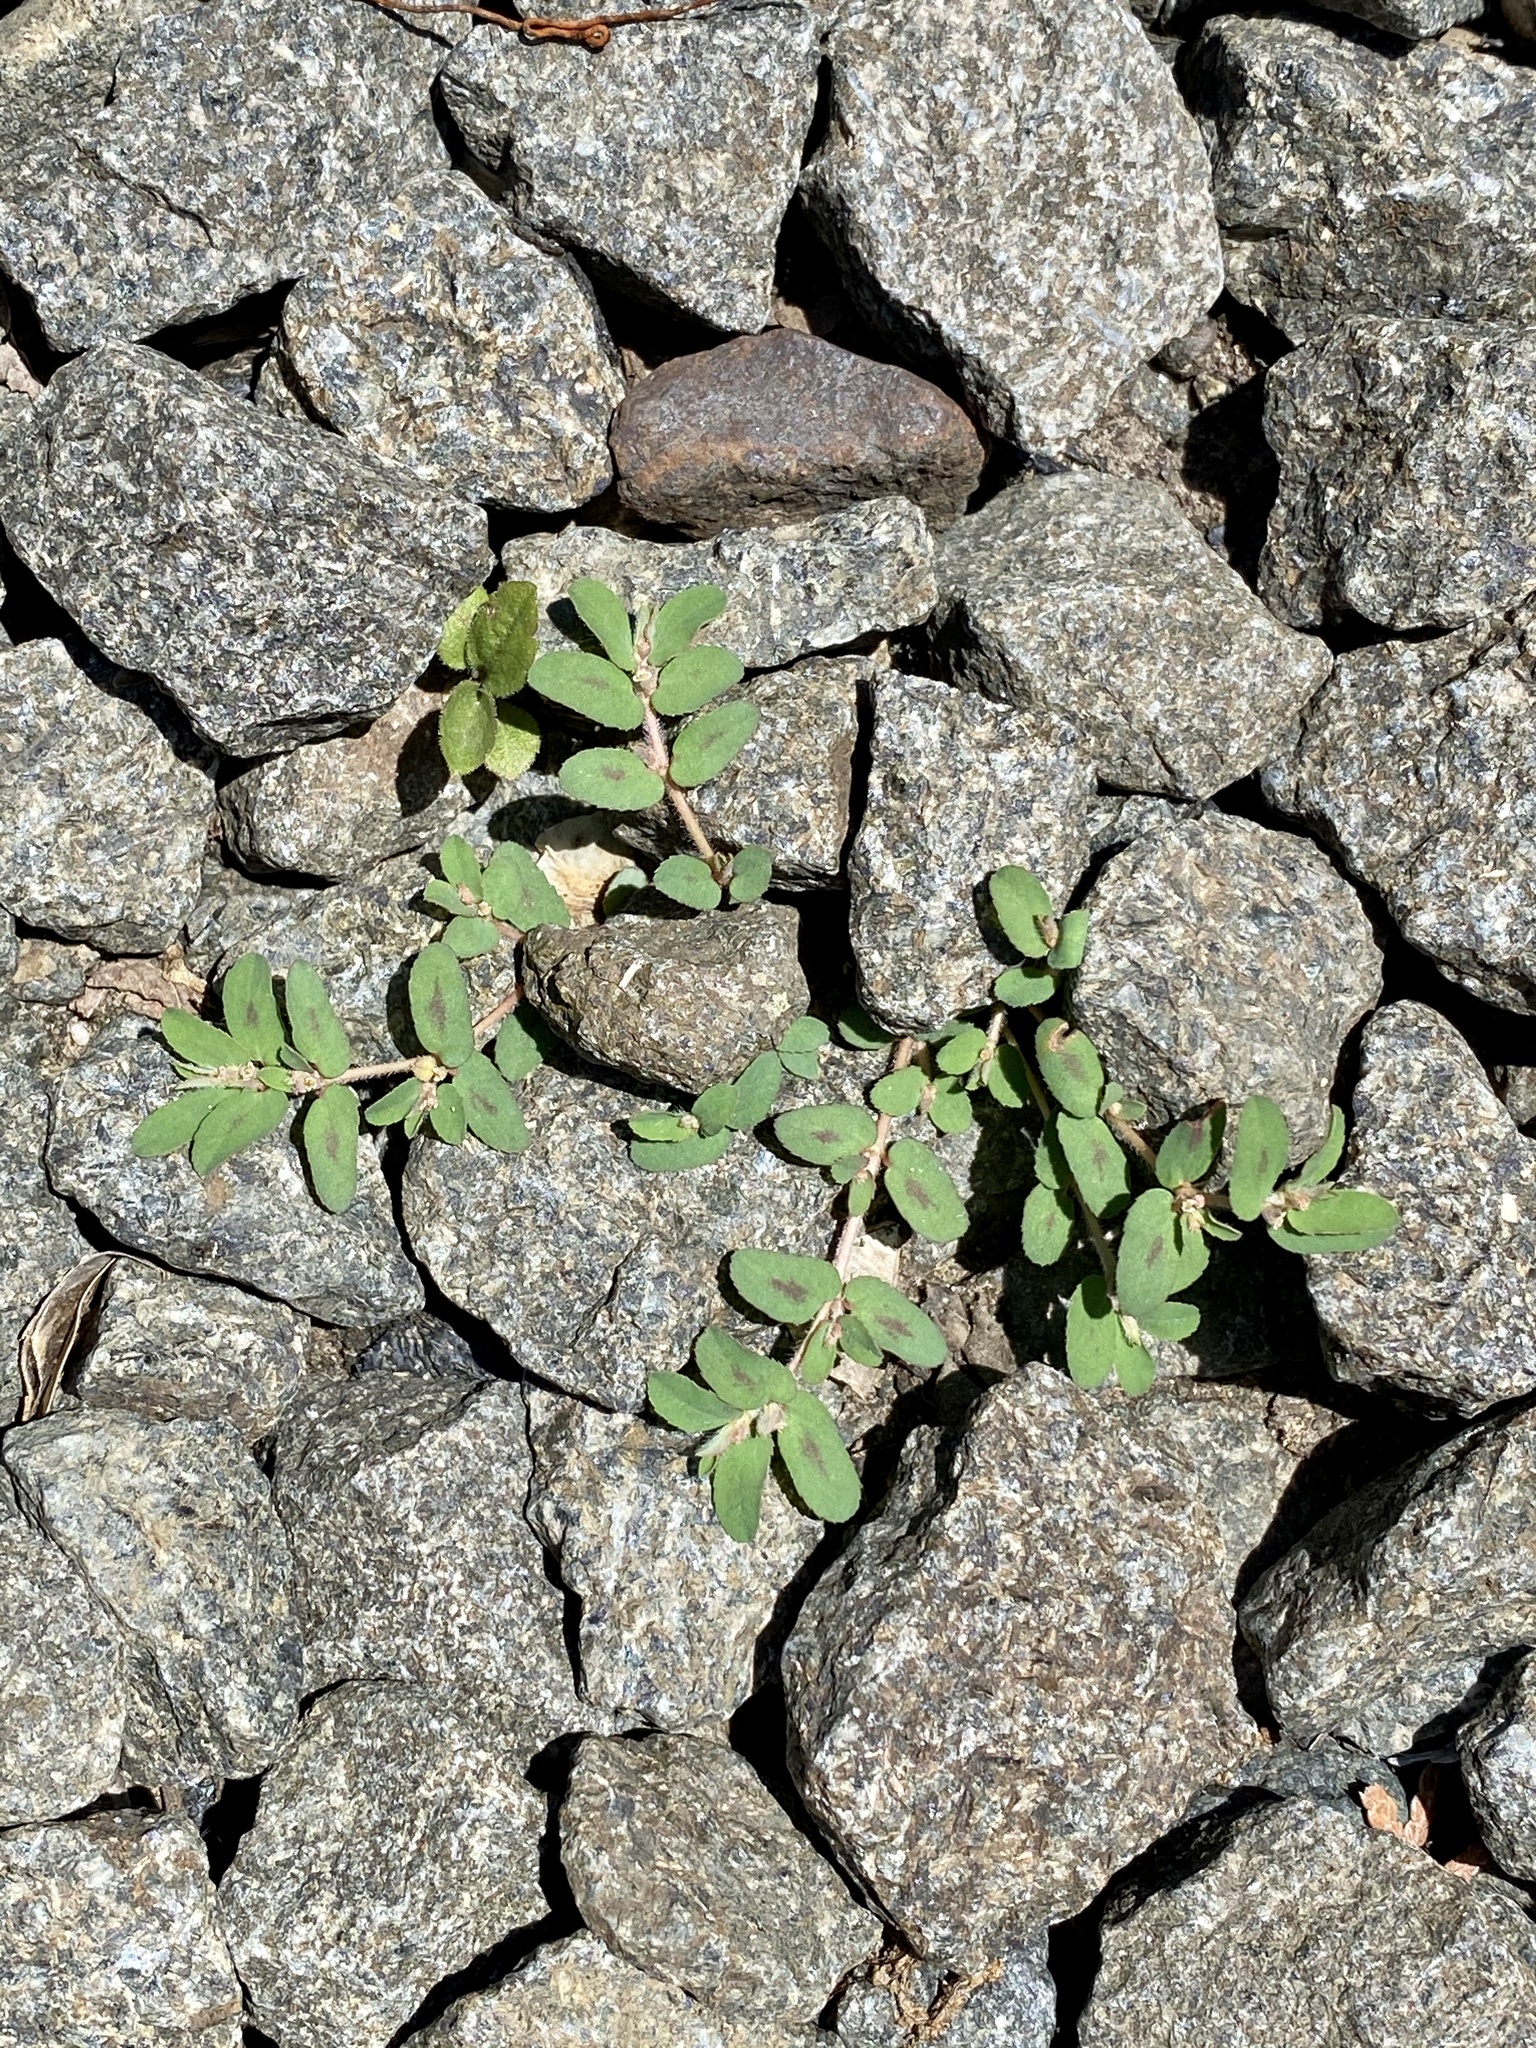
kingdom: Plantae
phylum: Tracheophyta
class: Magnoliopsida
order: Malpighiales
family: Euphorbiaceae
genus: Euphorbia
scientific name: Euphorbia maculata
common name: Spotted spurge
